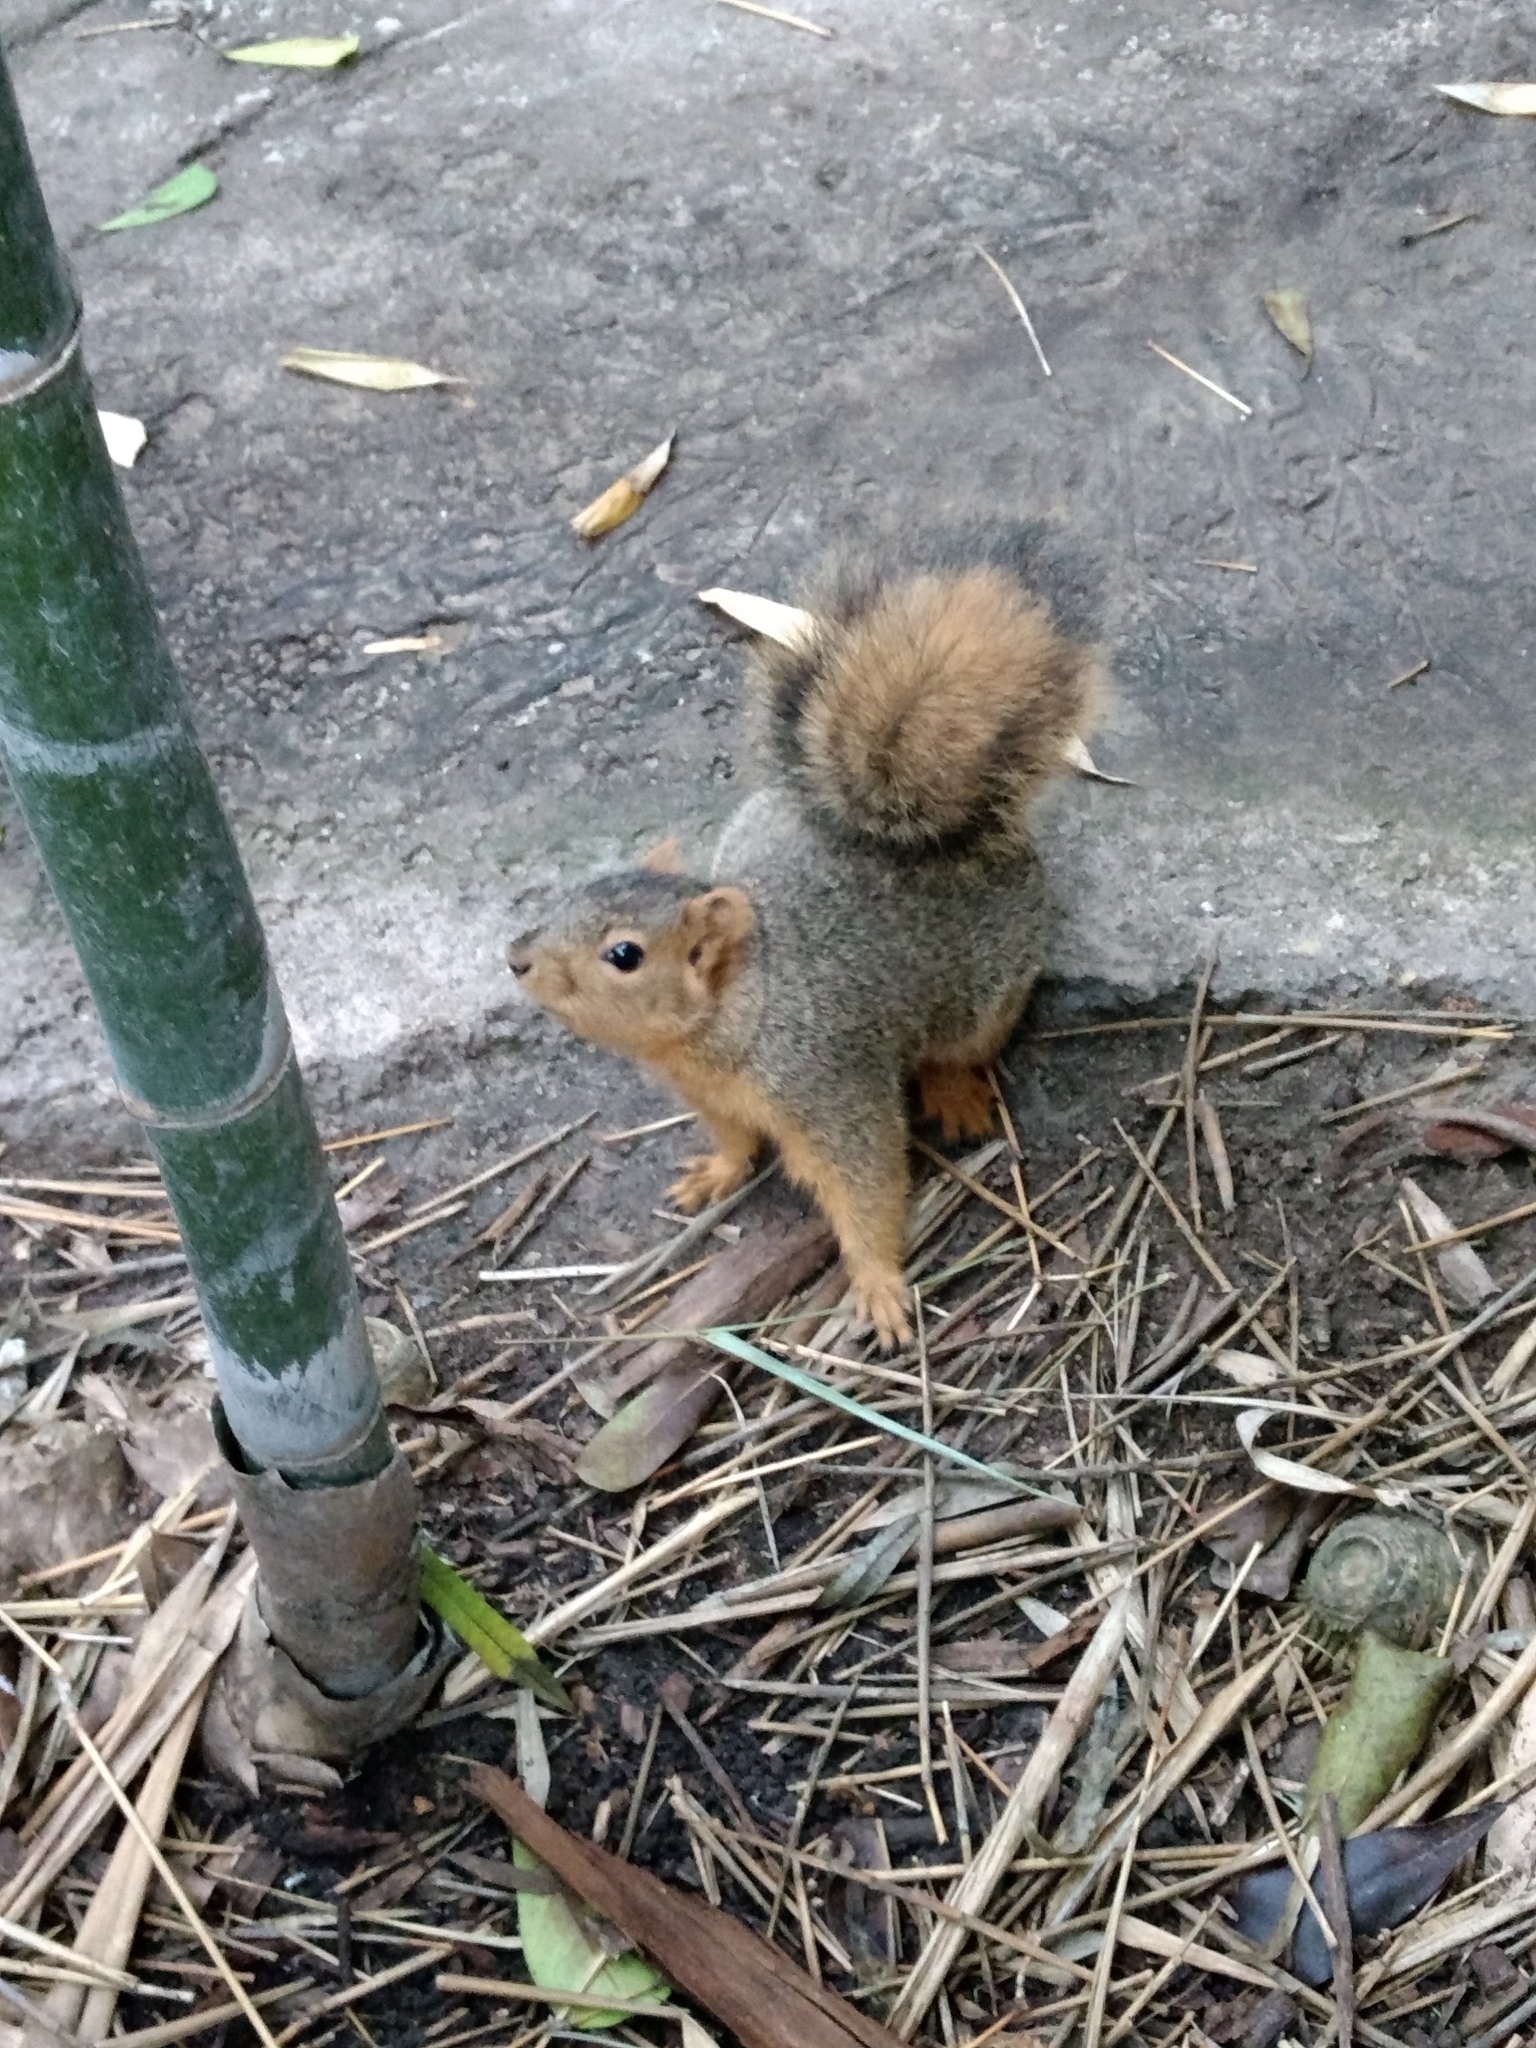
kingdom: Animalia
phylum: Chordata
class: Mammalia
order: Rodentia
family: Sciuridae
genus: Sciurus
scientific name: Sciurus niger
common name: Fox squirrel
